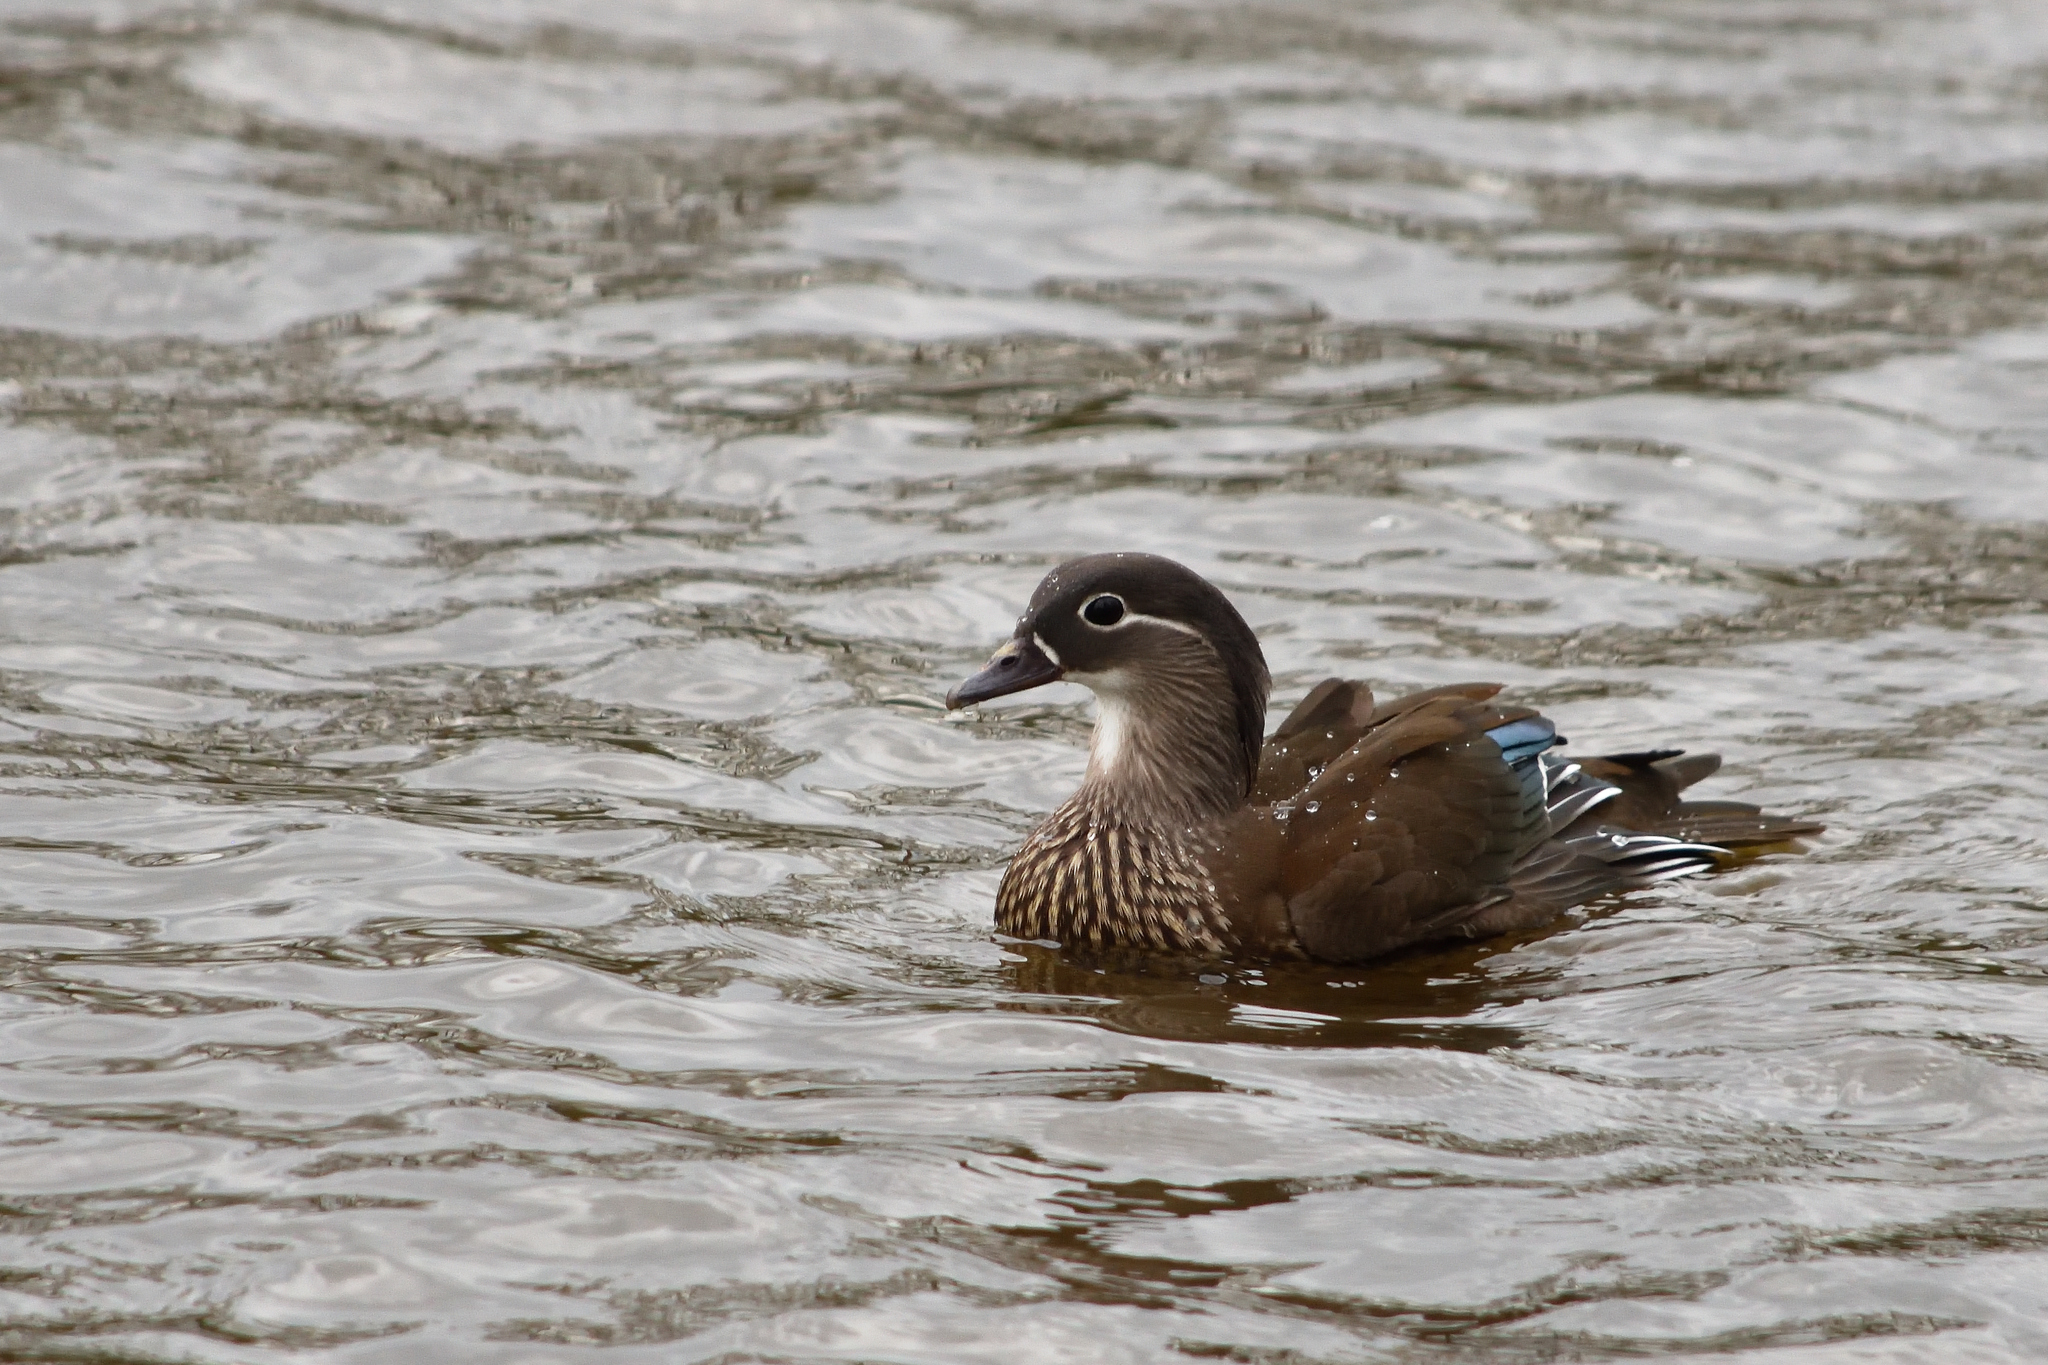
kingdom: Animalia
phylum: Chordata
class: Aves
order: Anseriformes
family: Anatidae
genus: Aix
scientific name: Aix galericulata
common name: Mandarin duck
